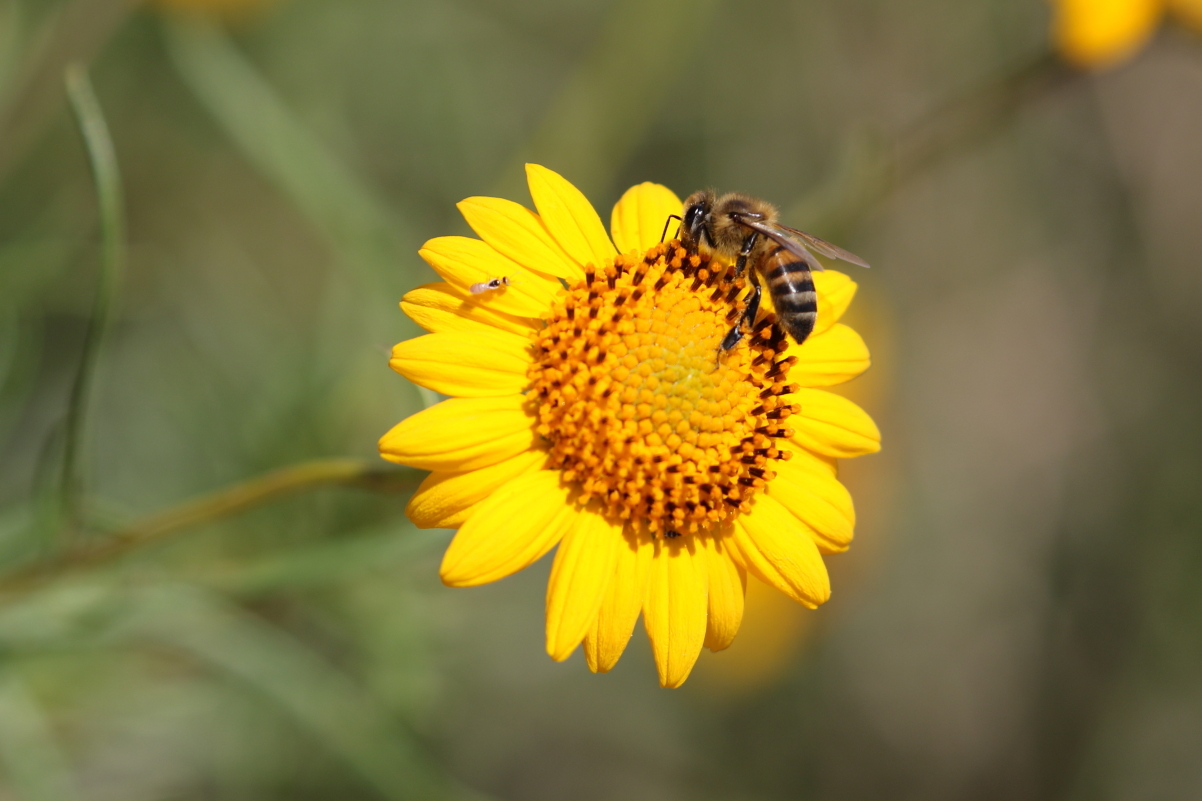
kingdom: Animalia
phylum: Arthropoda
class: Insecta
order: Hymenoptera
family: Apidae
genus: Apis
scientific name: Apis mellifera
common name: Honey bee
